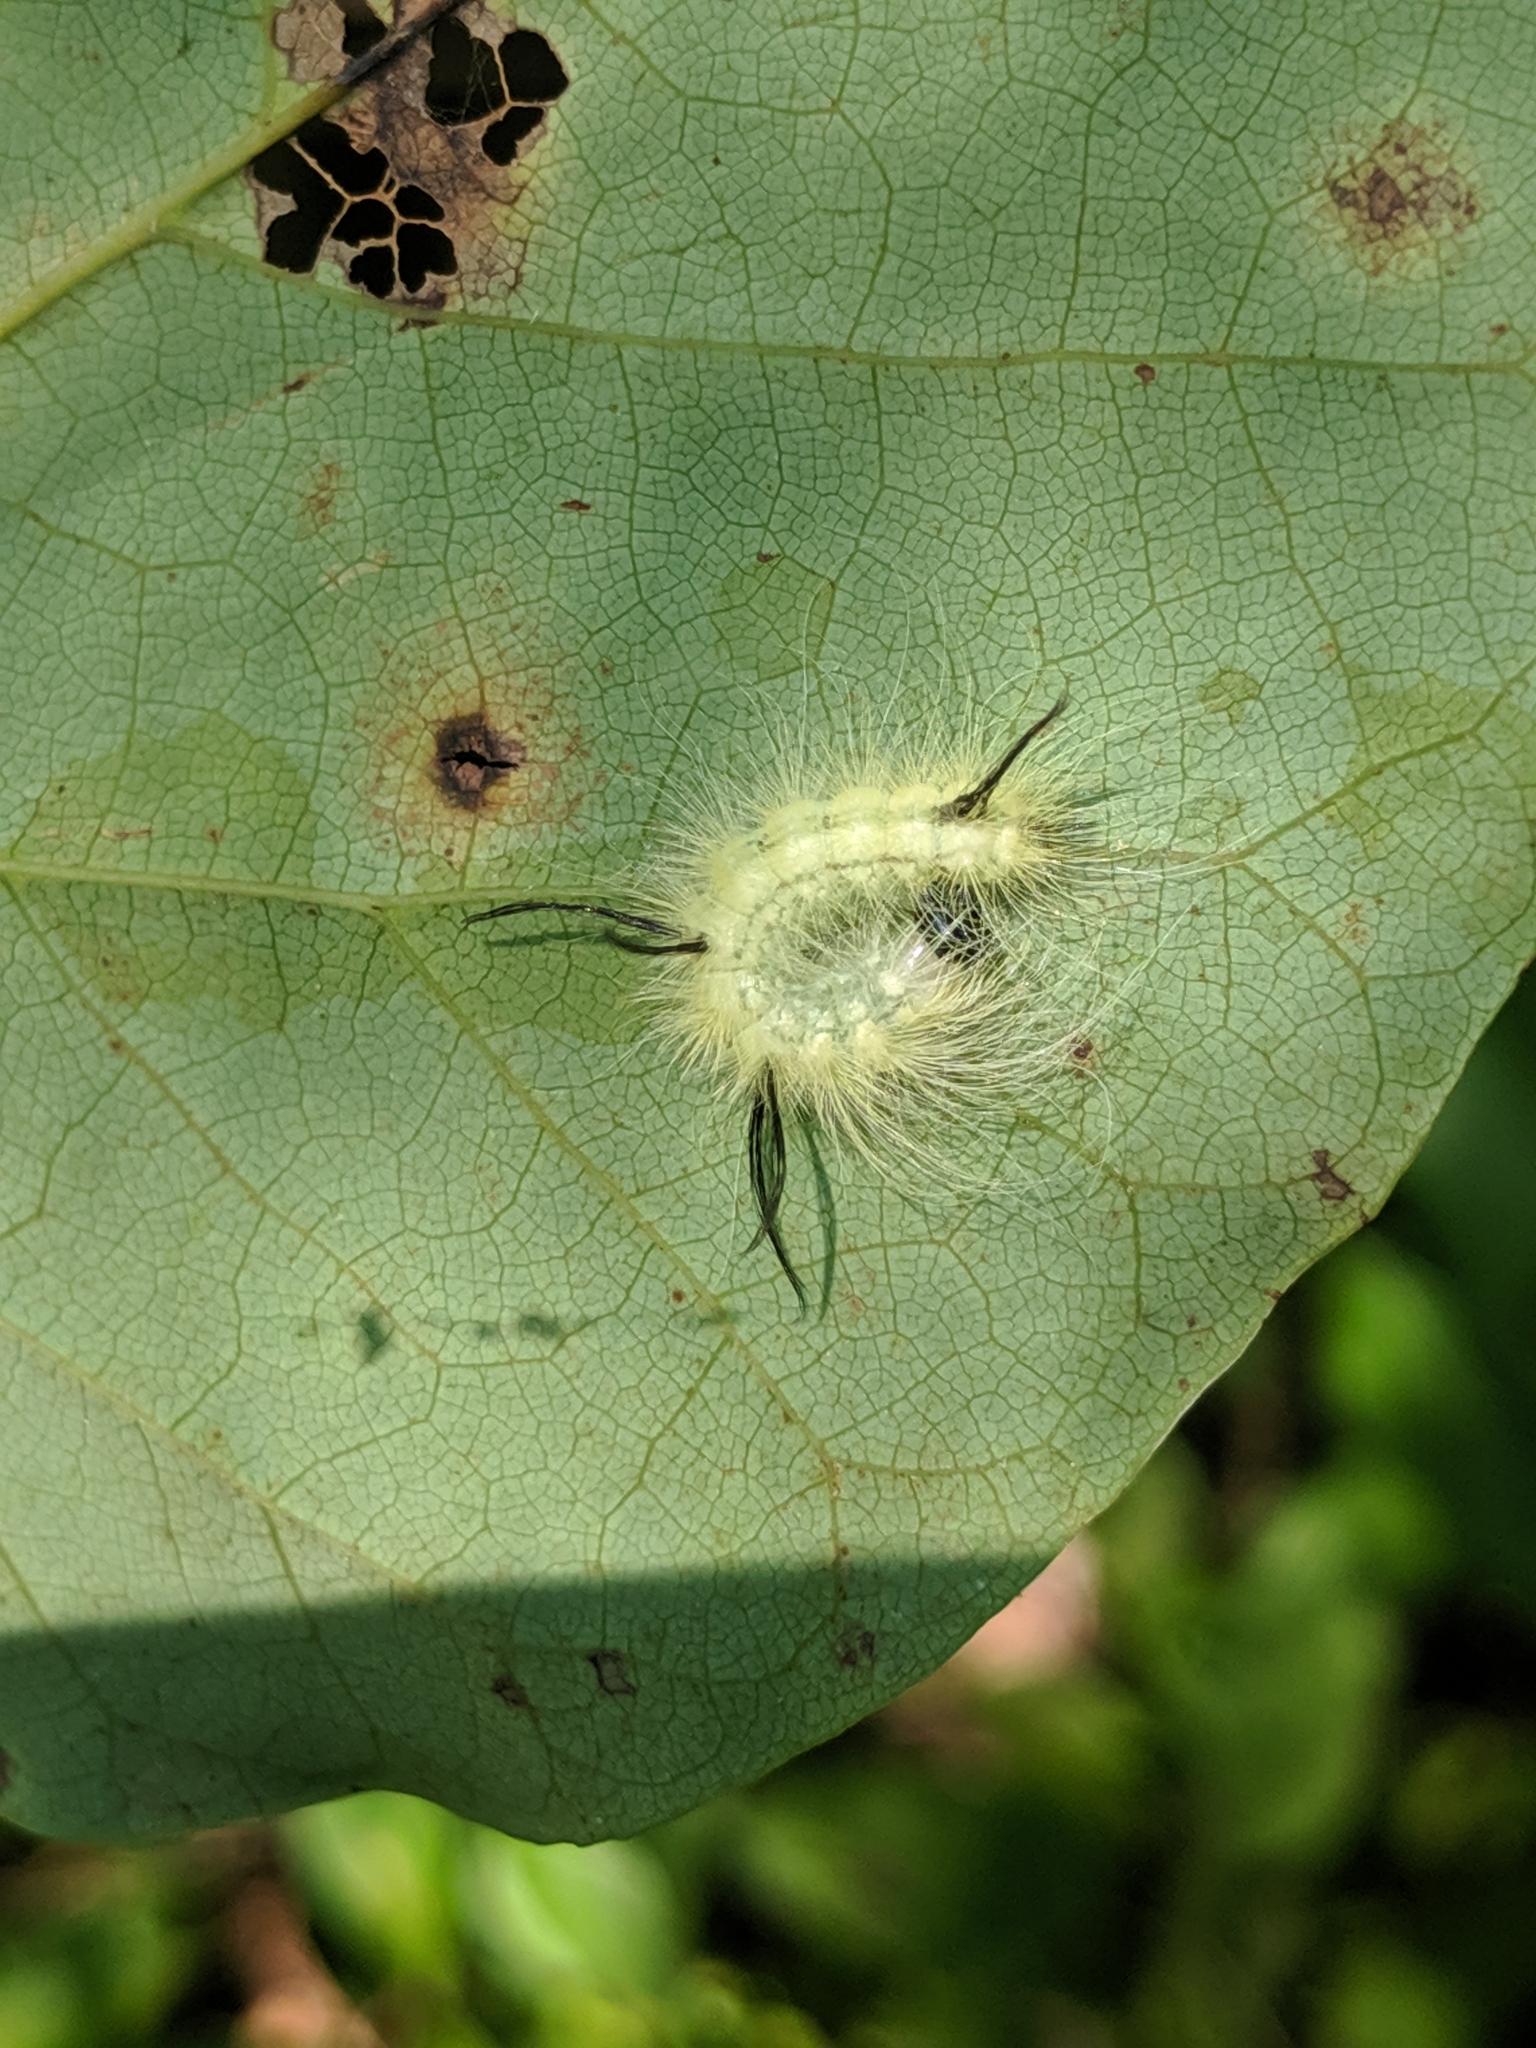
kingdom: Animalia
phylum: Arthropoda
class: Insecta
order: Lepidoptera
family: Noctuidae
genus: Acronicta
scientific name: Acronicta americana
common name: American dagger
